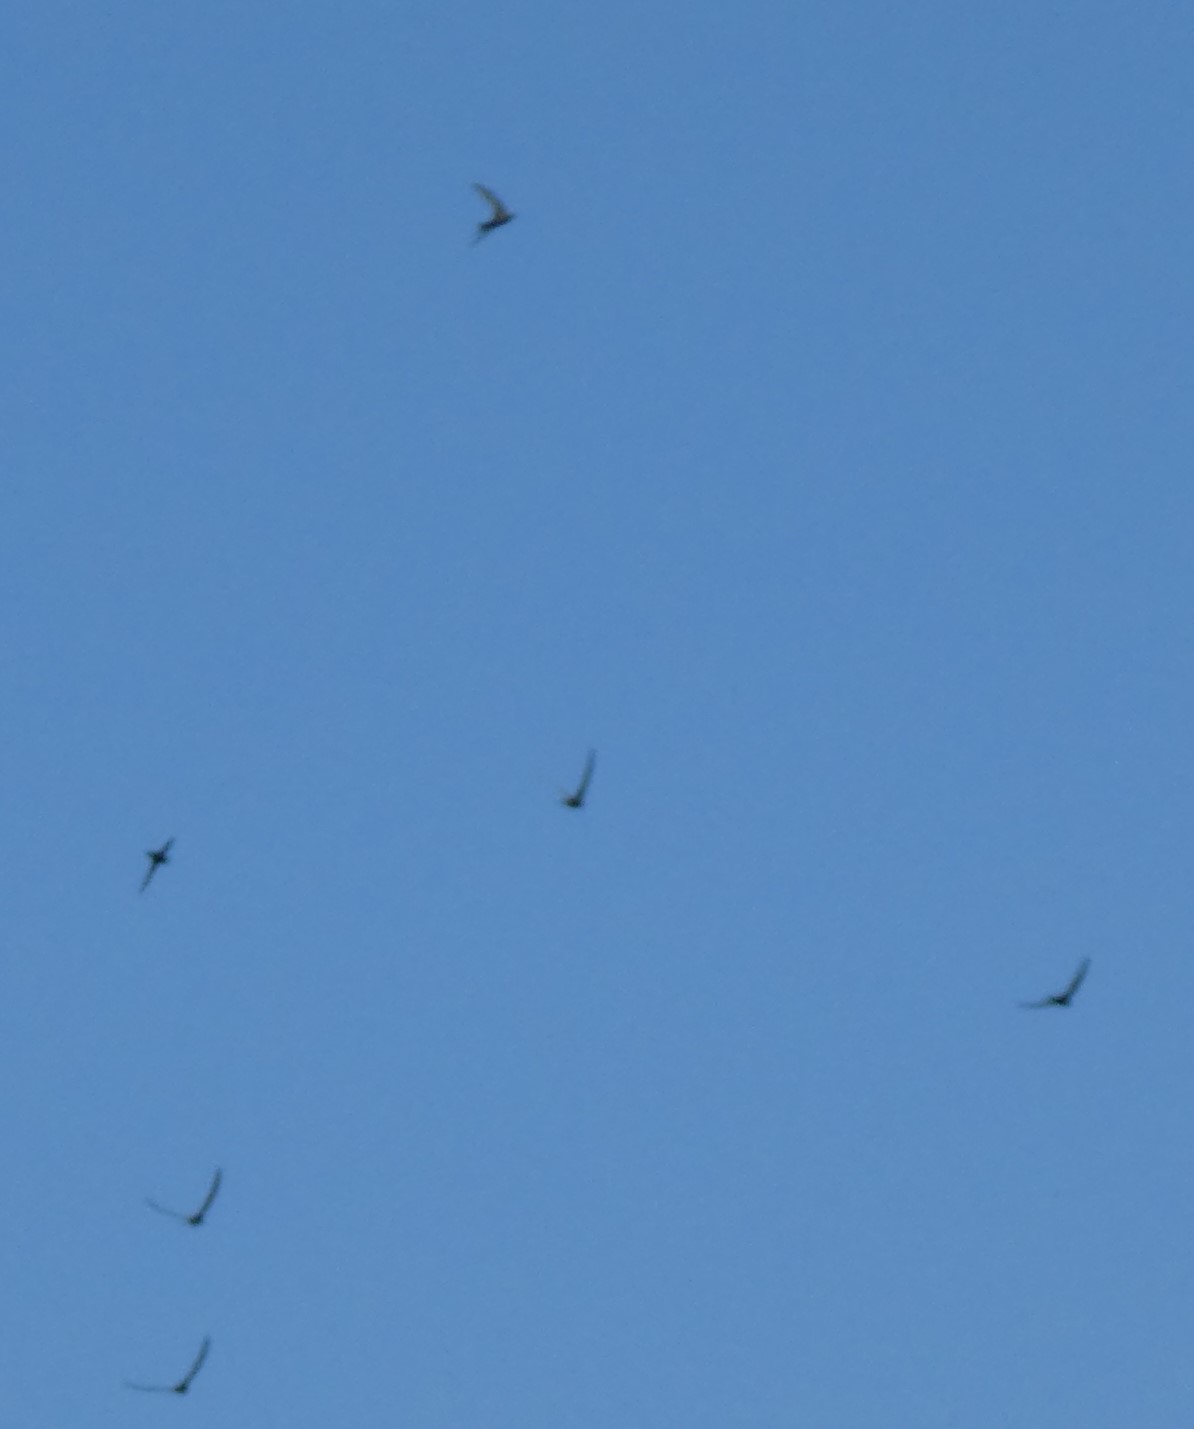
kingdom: Animalia
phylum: Chordata
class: Aves
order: Apodiformes
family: Apodidae
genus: Apus
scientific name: Apus apus
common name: Common swift
